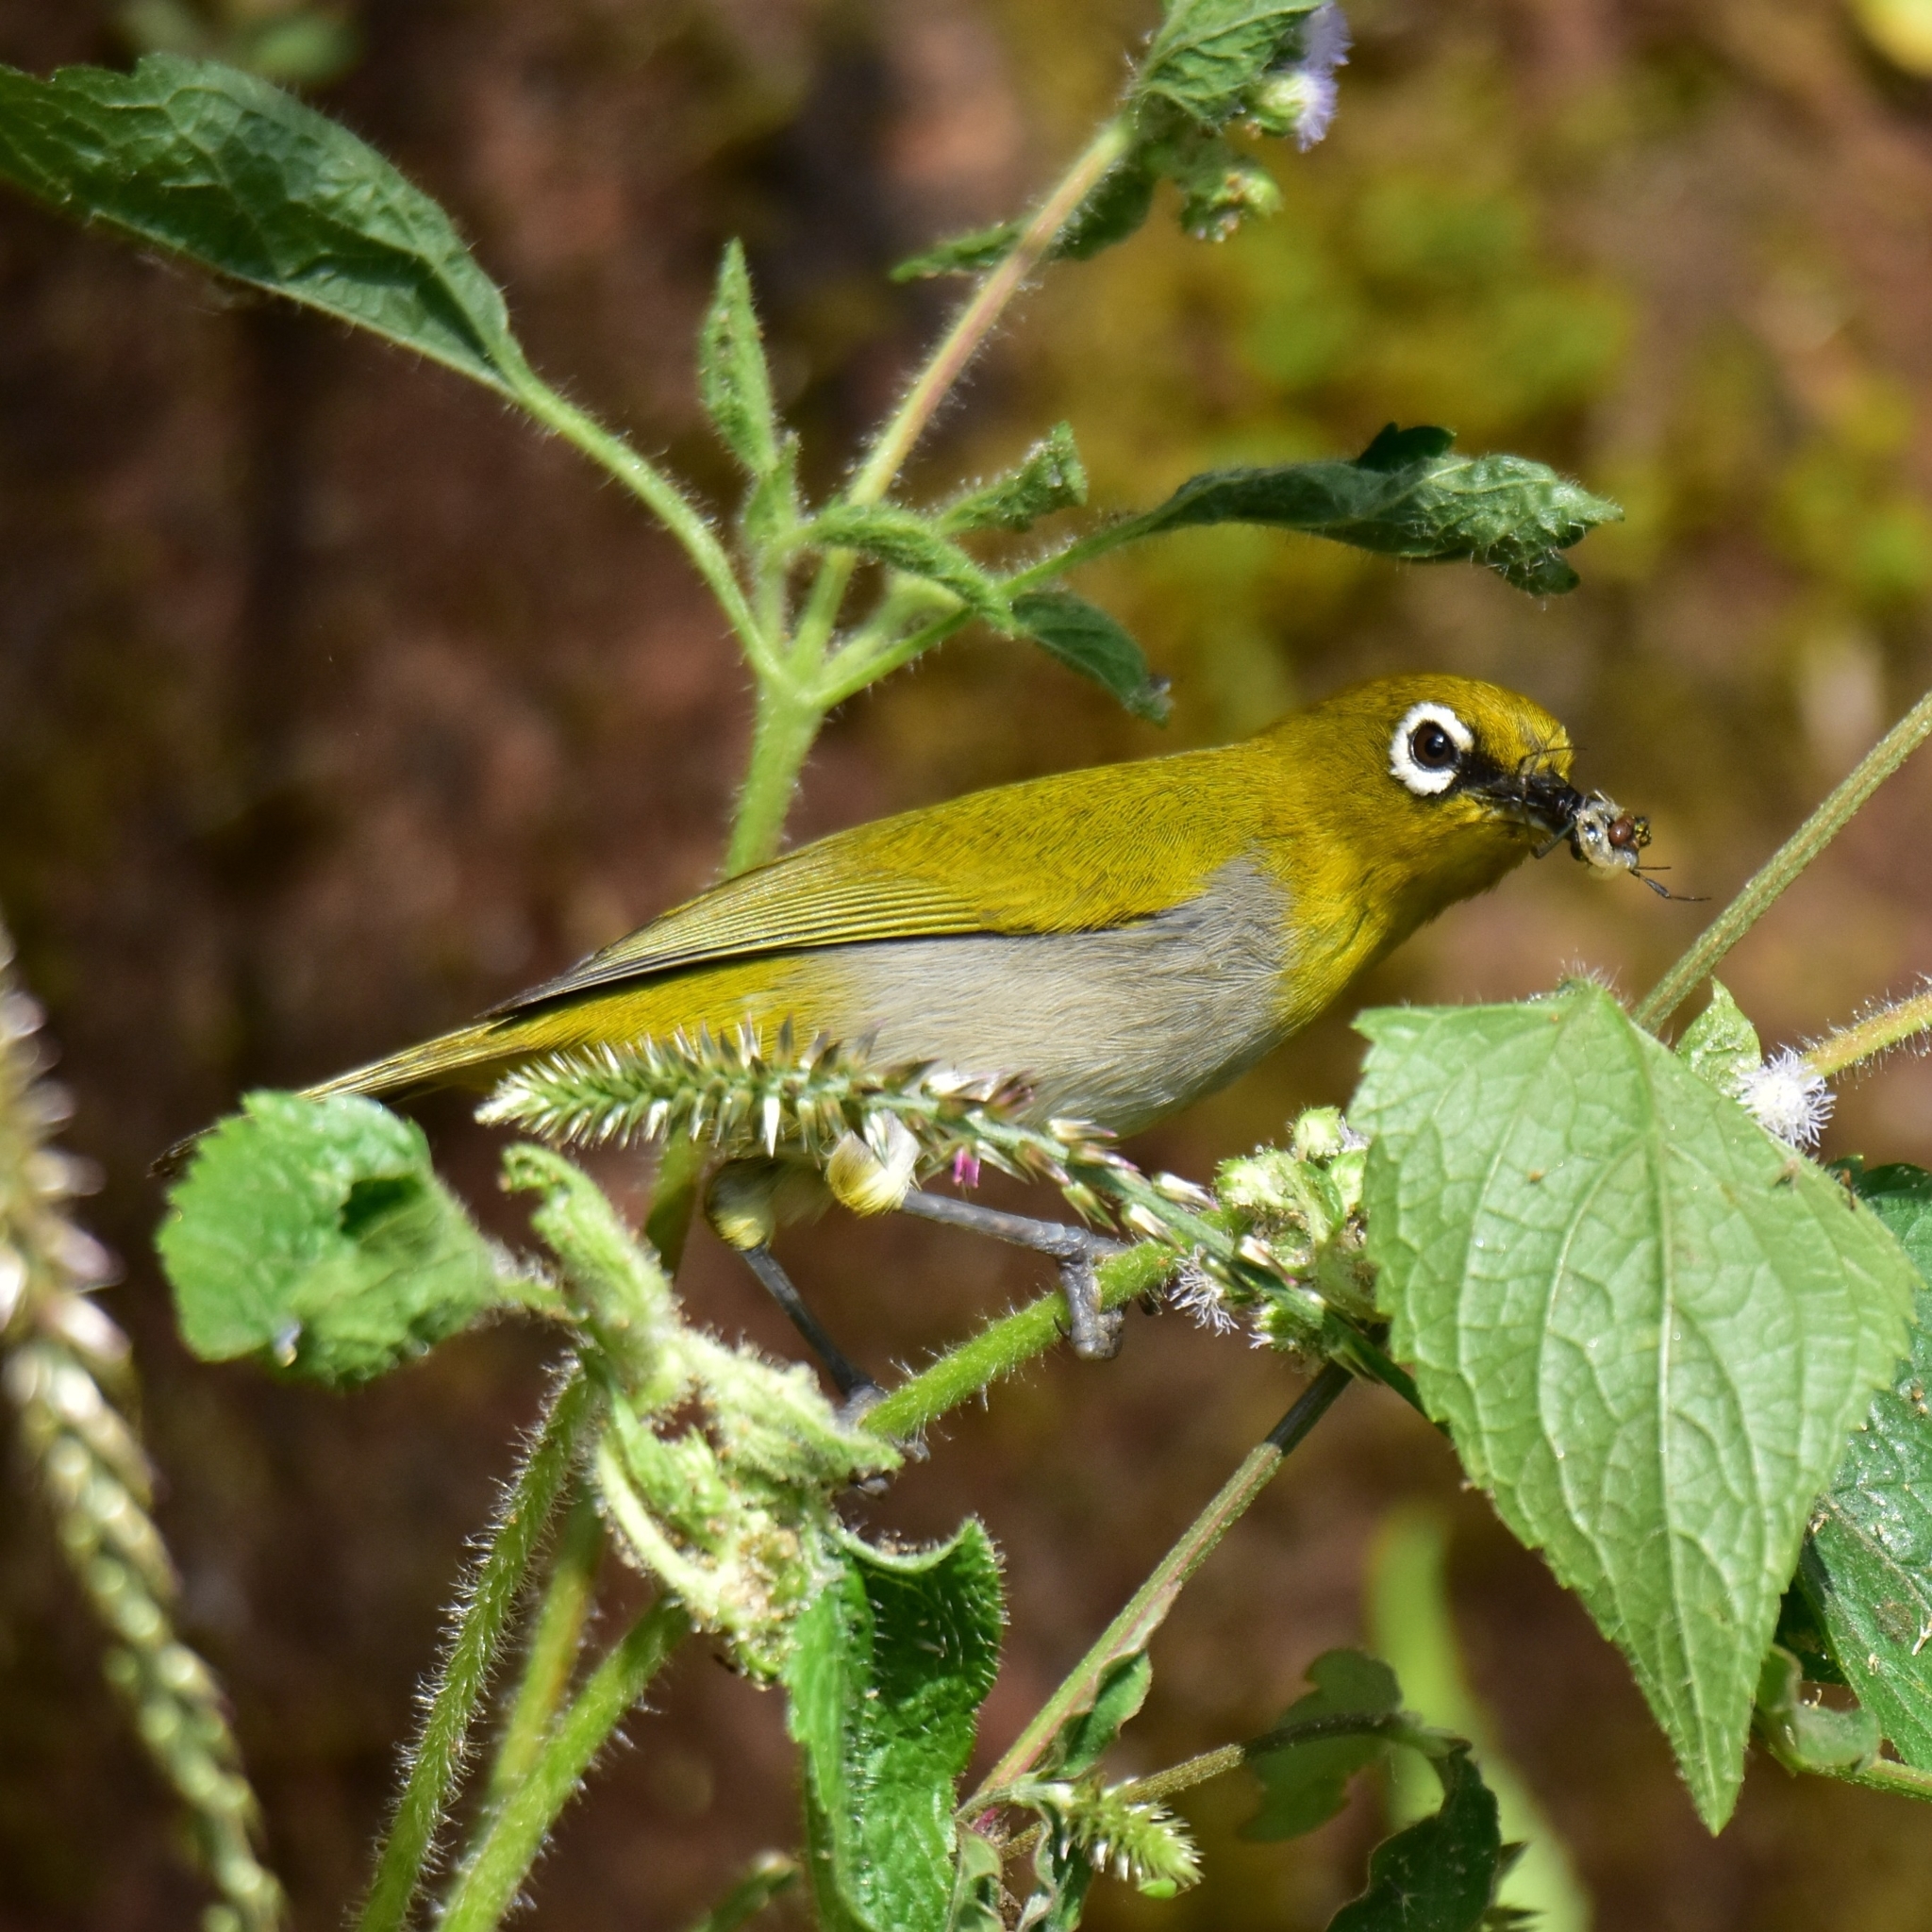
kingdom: Animalia
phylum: Chordata
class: Aves
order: Passeriformes
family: Zosteropidae
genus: Zosterops
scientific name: Zosterops palpebrosus
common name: Oriental white-eye
